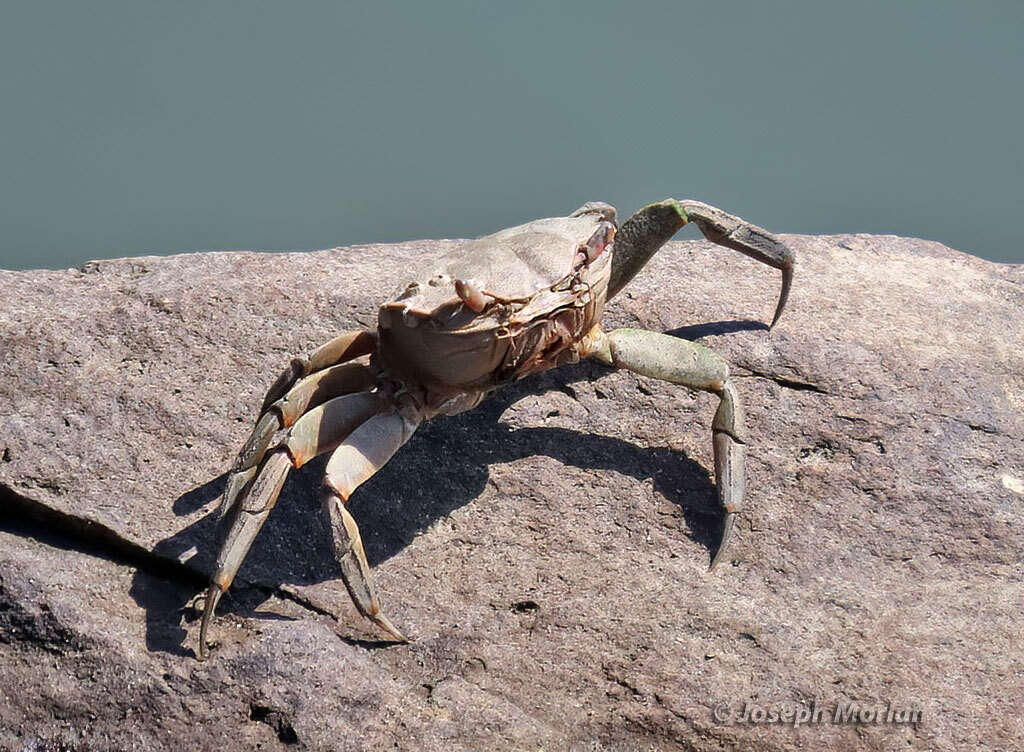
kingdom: Animalia
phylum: Arthropoda
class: Malacostraca
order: Decapoda
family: Varunidae
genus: Neohelice
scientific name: Neohelice granulata
